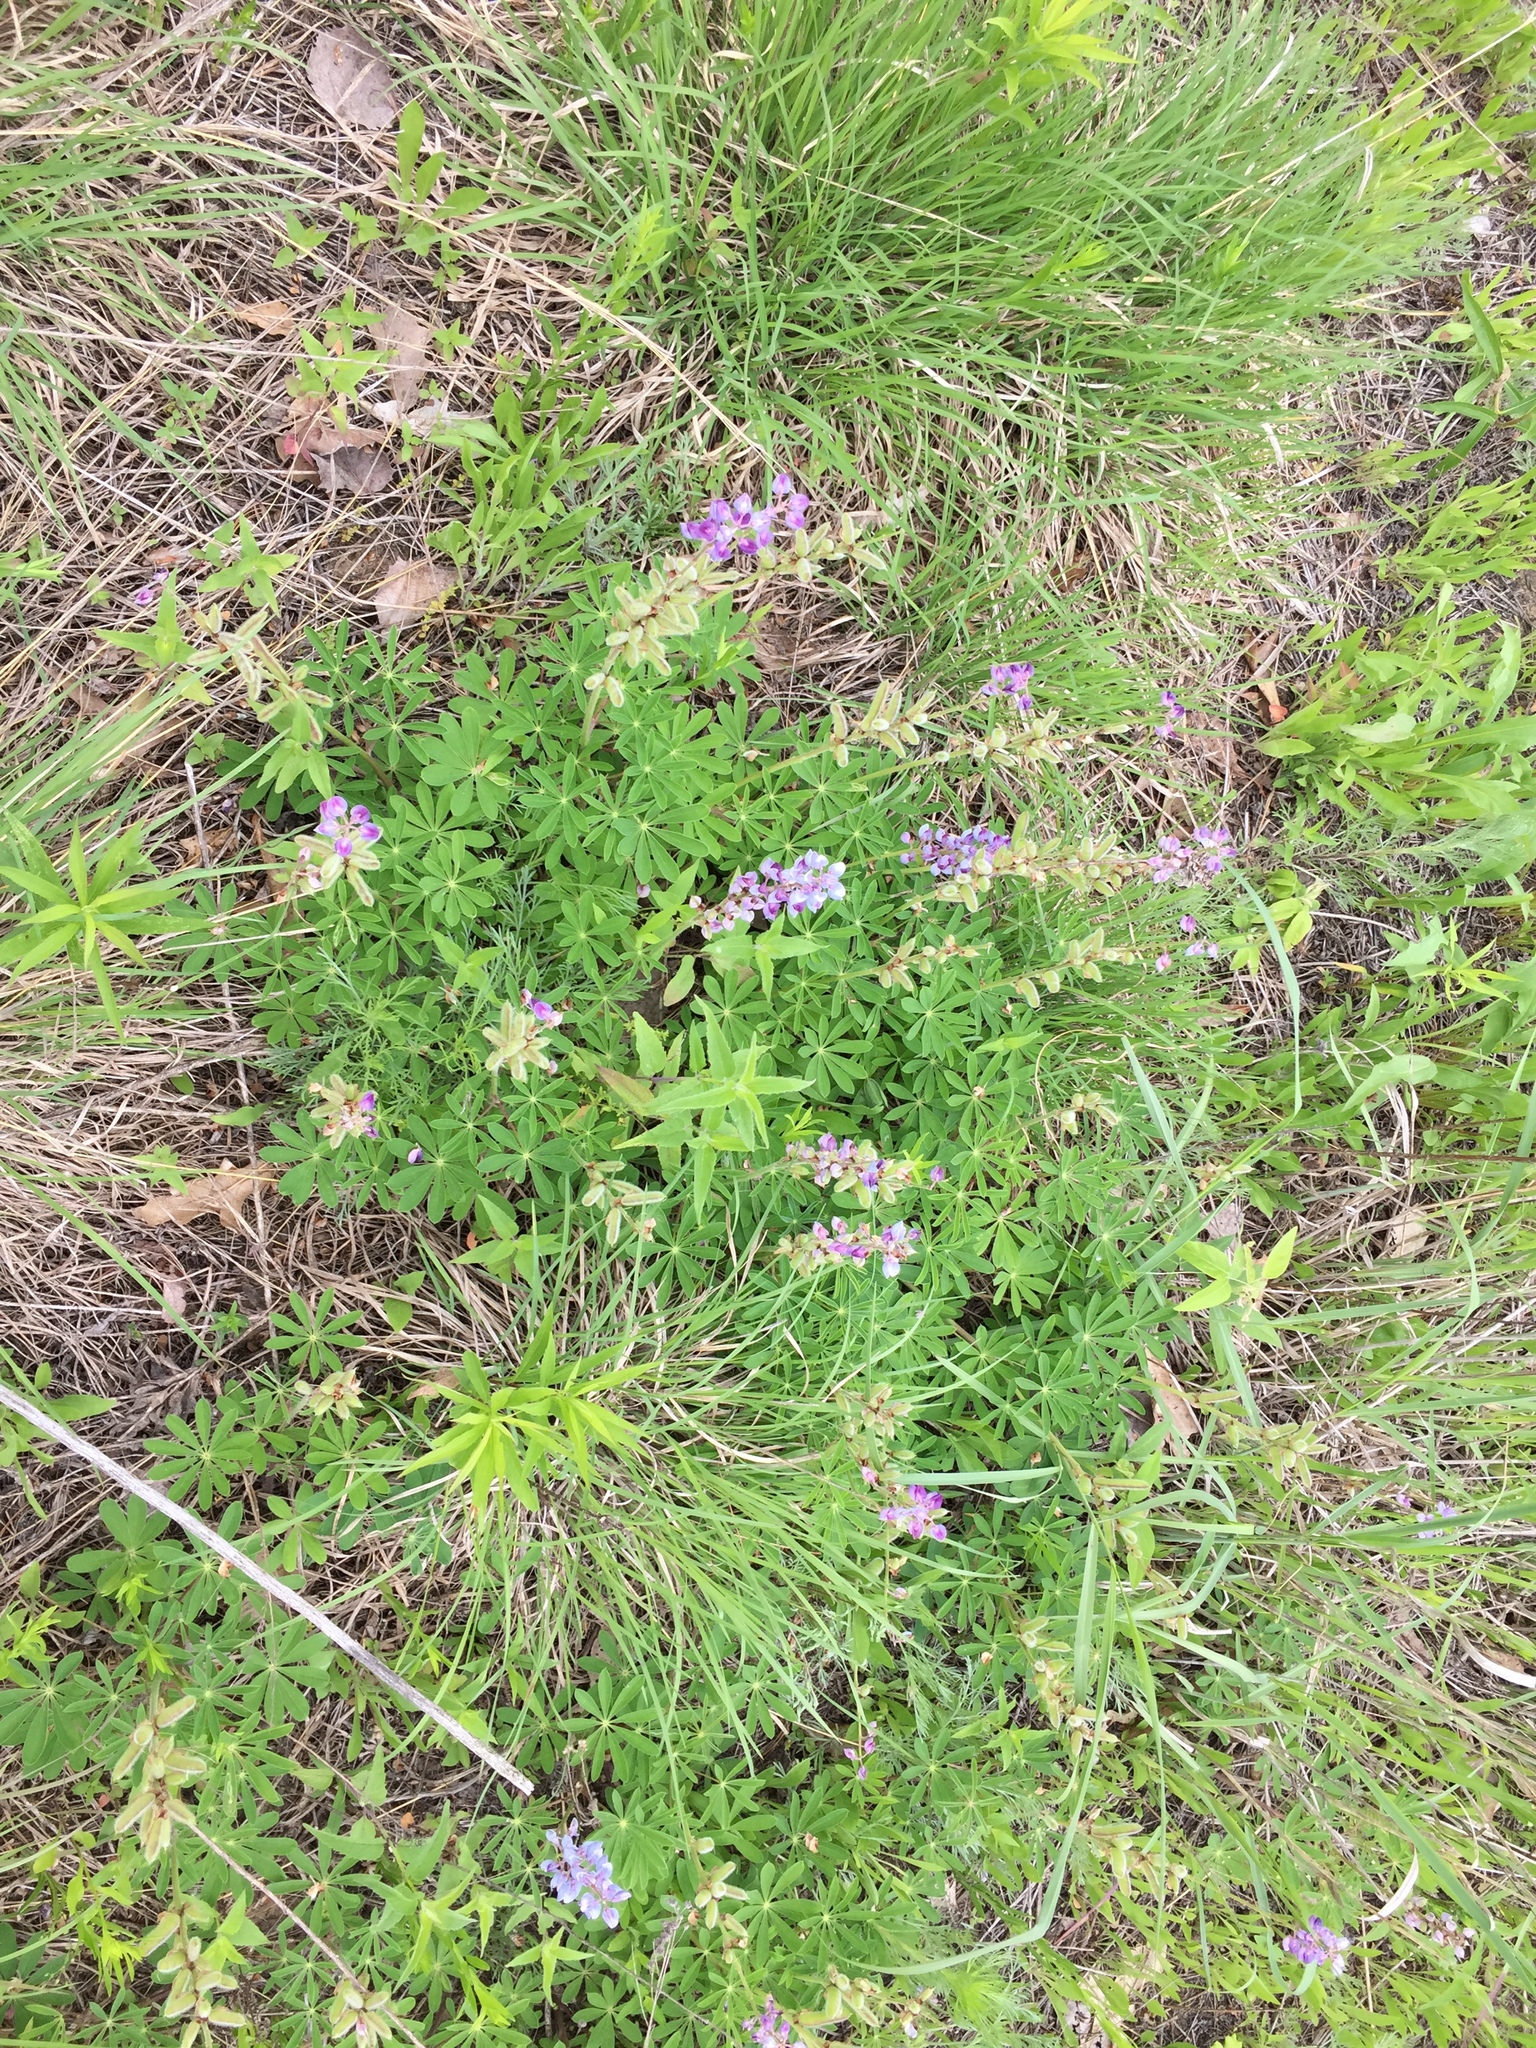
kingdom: Plantae
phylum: Tracheophyta
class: Magnoliopsida
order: Fabales
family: Fabaceae
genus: Lupinus
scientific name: Lupinus perennis
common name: Sundial lupine
